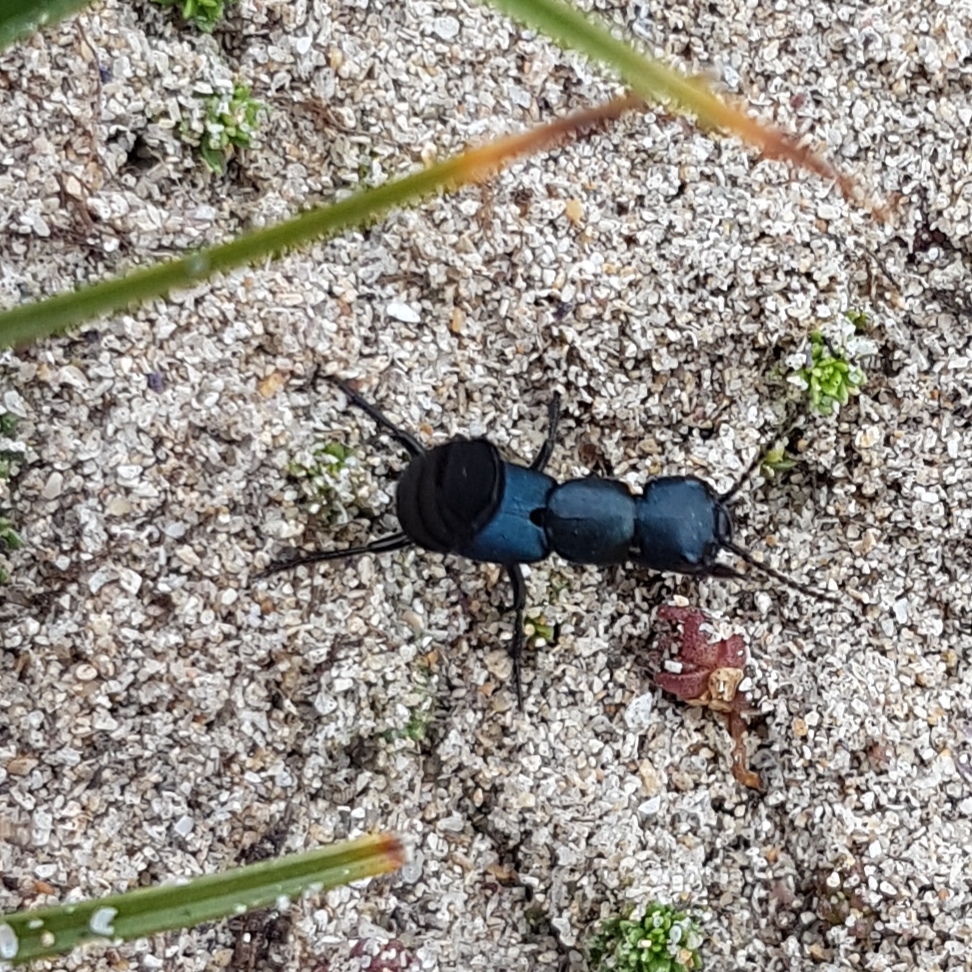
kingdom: Animalia
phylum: Arthropoda
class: Insecta
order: Coleoptera
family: Staphylinidae
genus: Ocypus
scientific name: Ocypus ophthalmicus
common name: Blue rove-beetle
